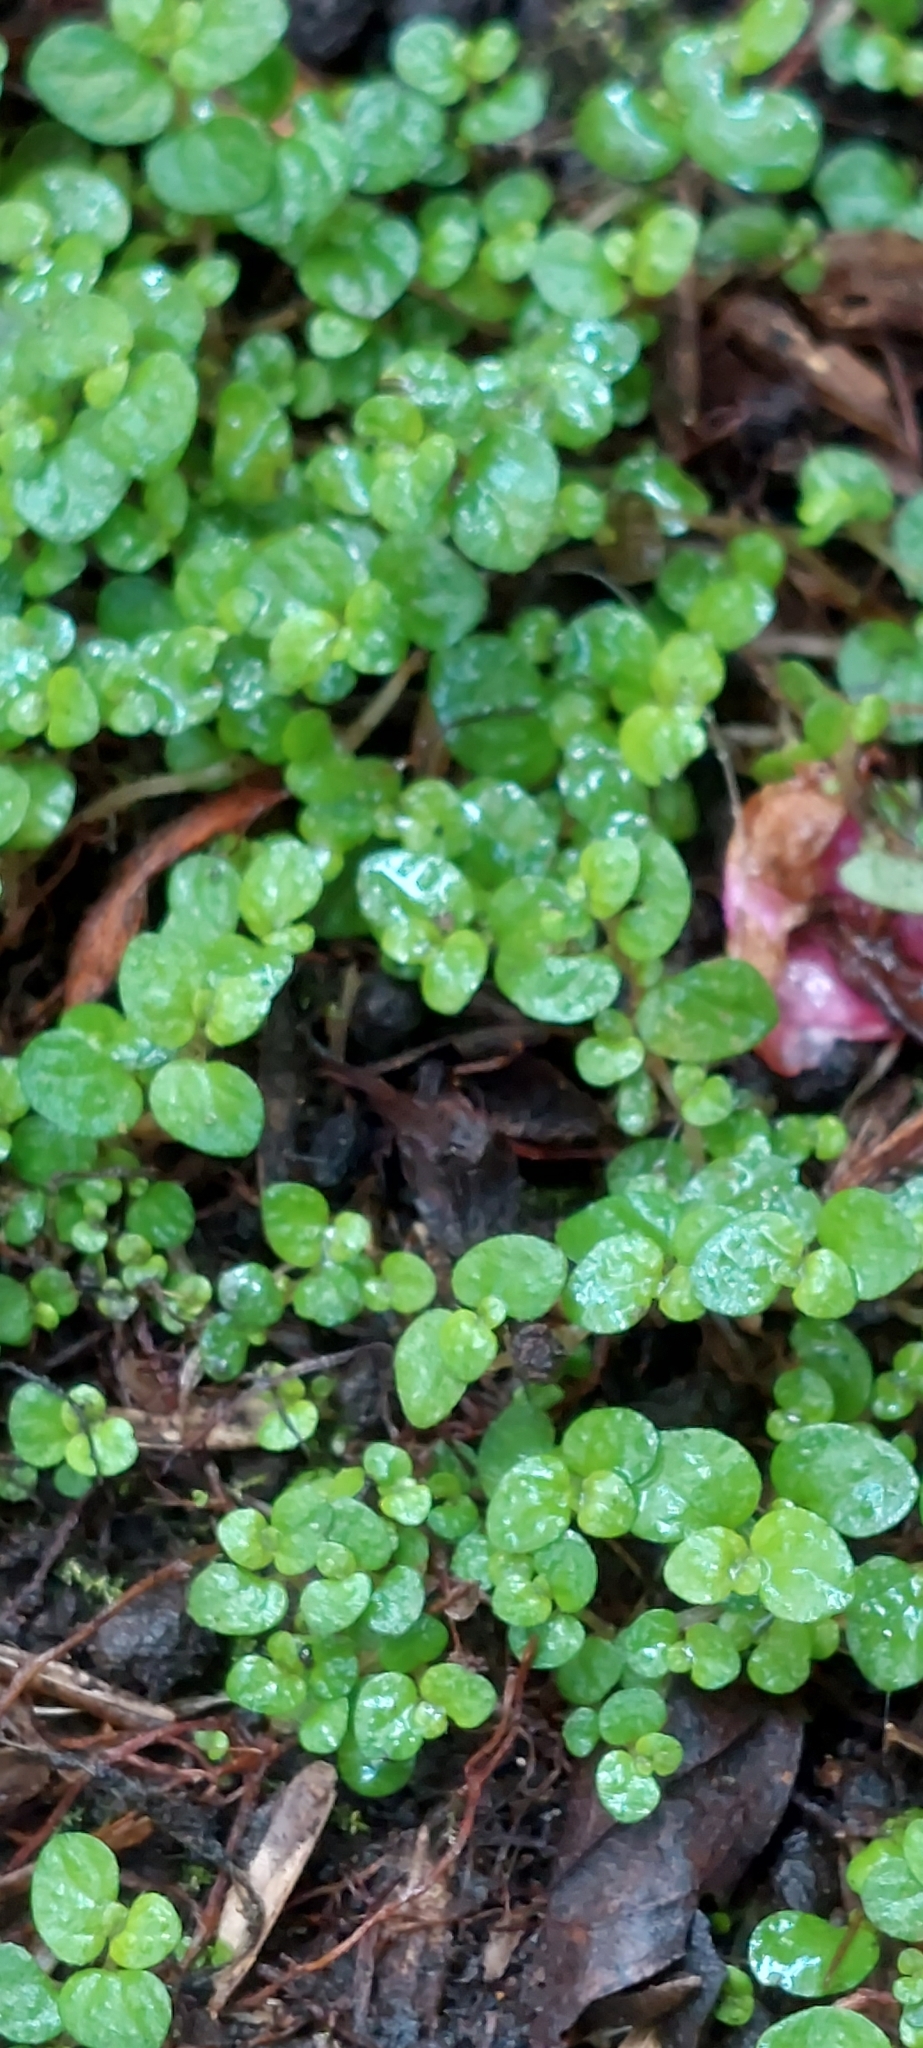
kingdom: Plantae
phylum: Tracheophyta
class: Magnoliopsida
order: Rosales
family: Urticaceae
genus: Soleirolia
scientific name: Soleirolia soleirolii
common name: Mind-your-own-business
